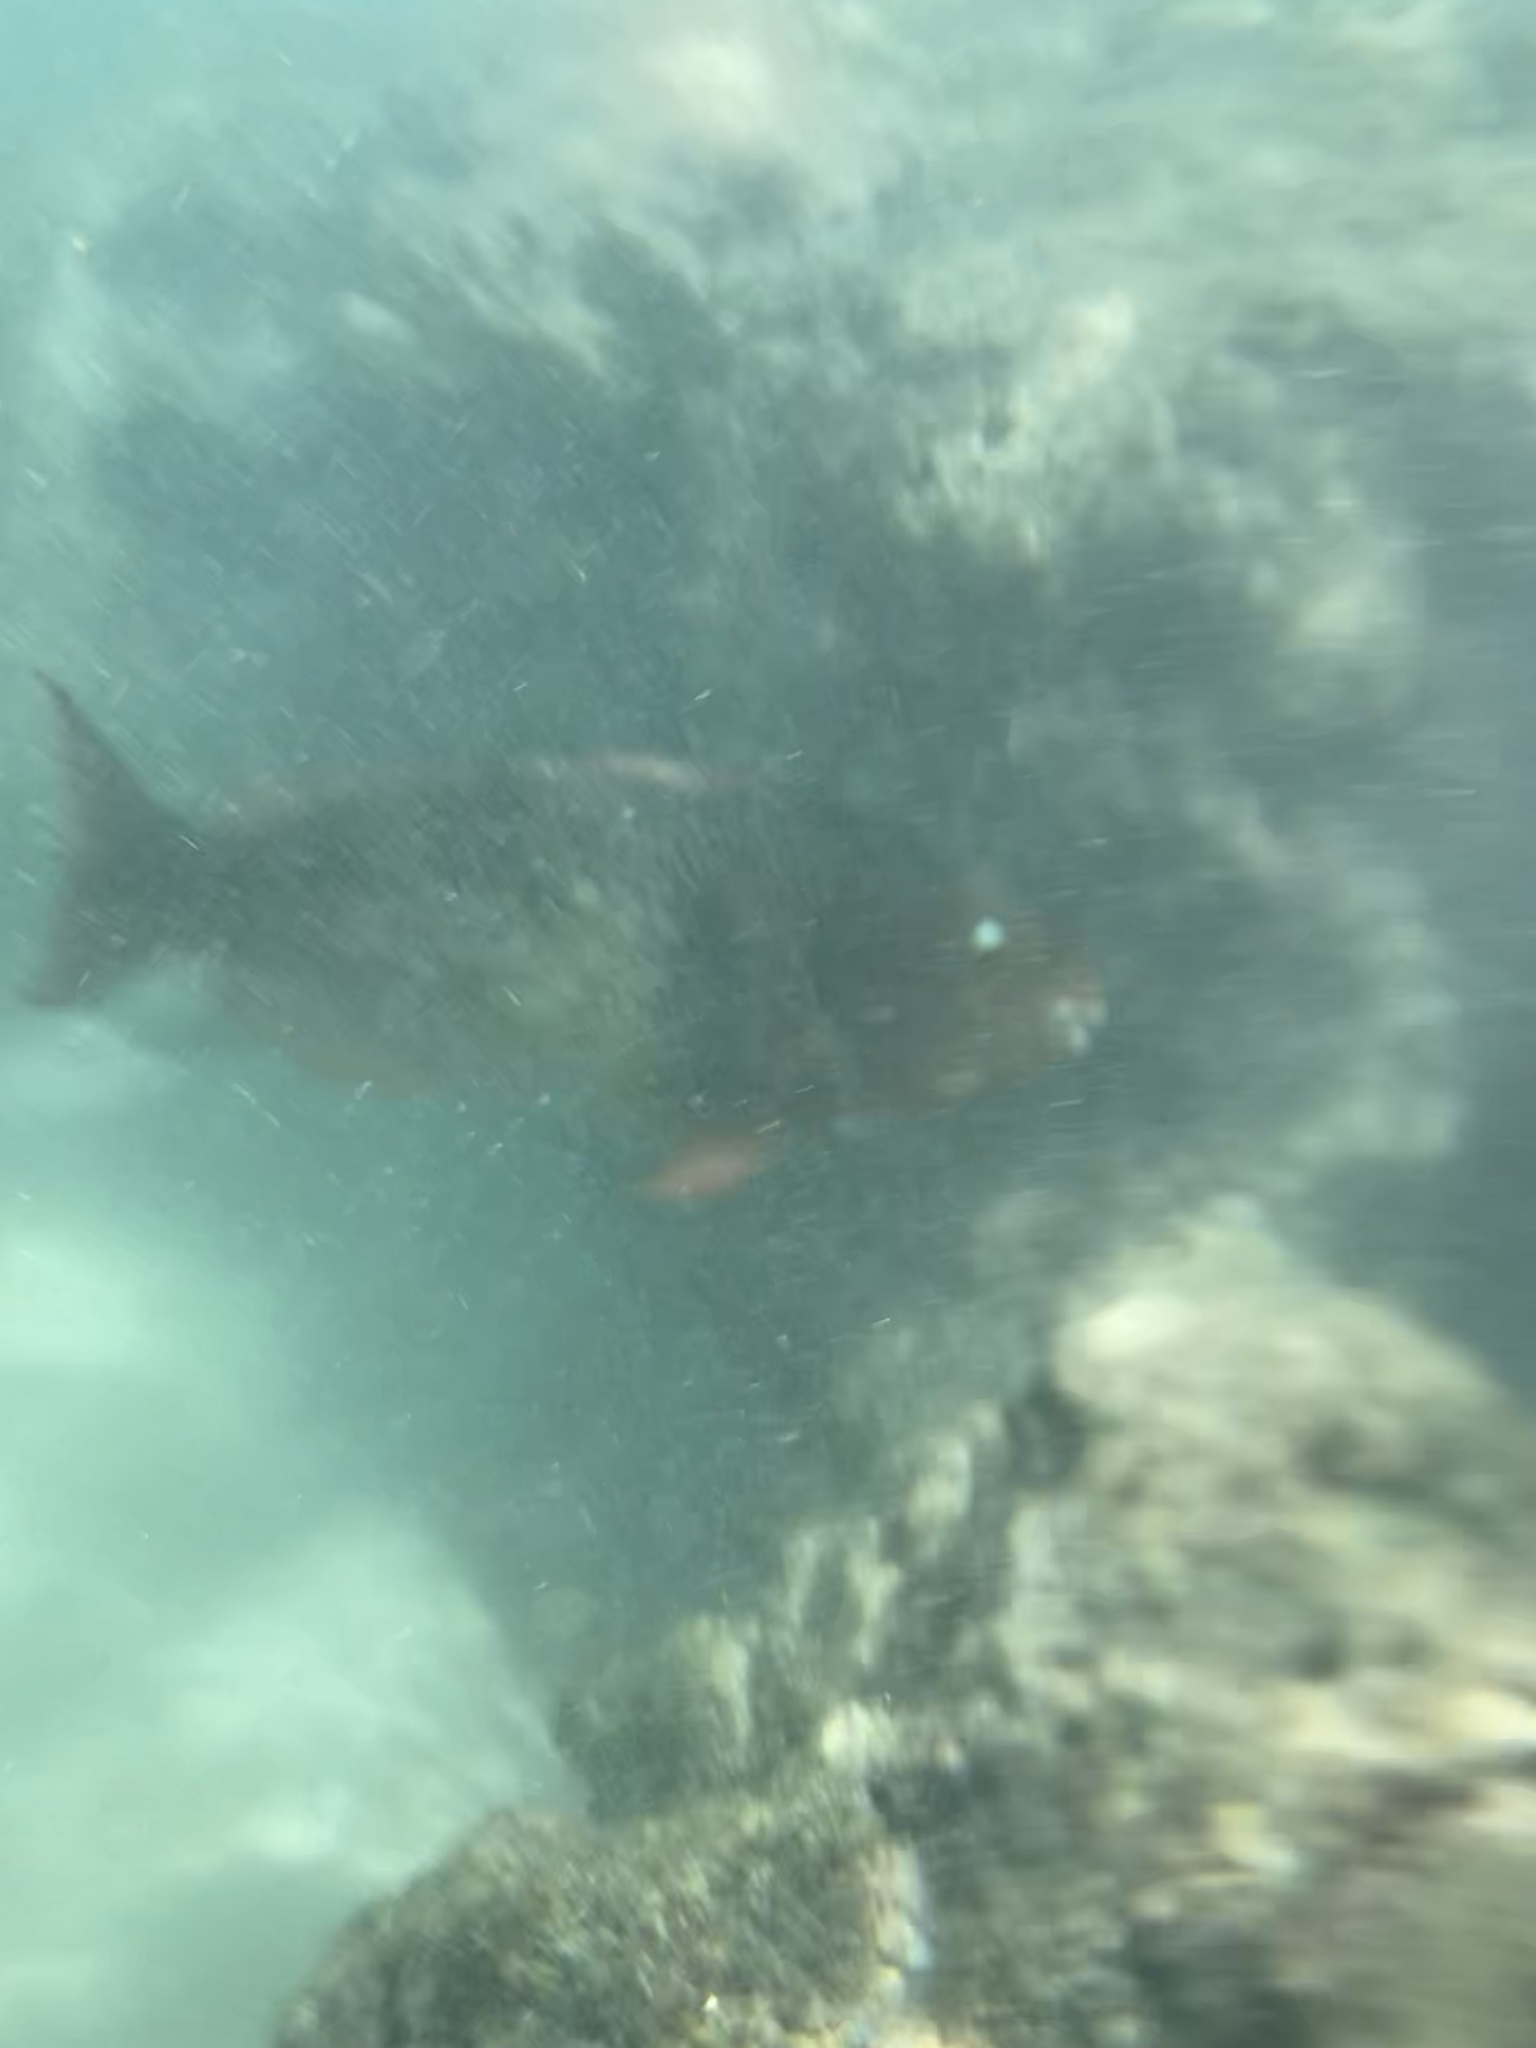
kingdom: Animalia
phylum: Chordata
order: Perciformes
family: Scaridae
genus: Scarus
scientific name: Scarus rubroviolaceus
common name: Ember parrotfish
